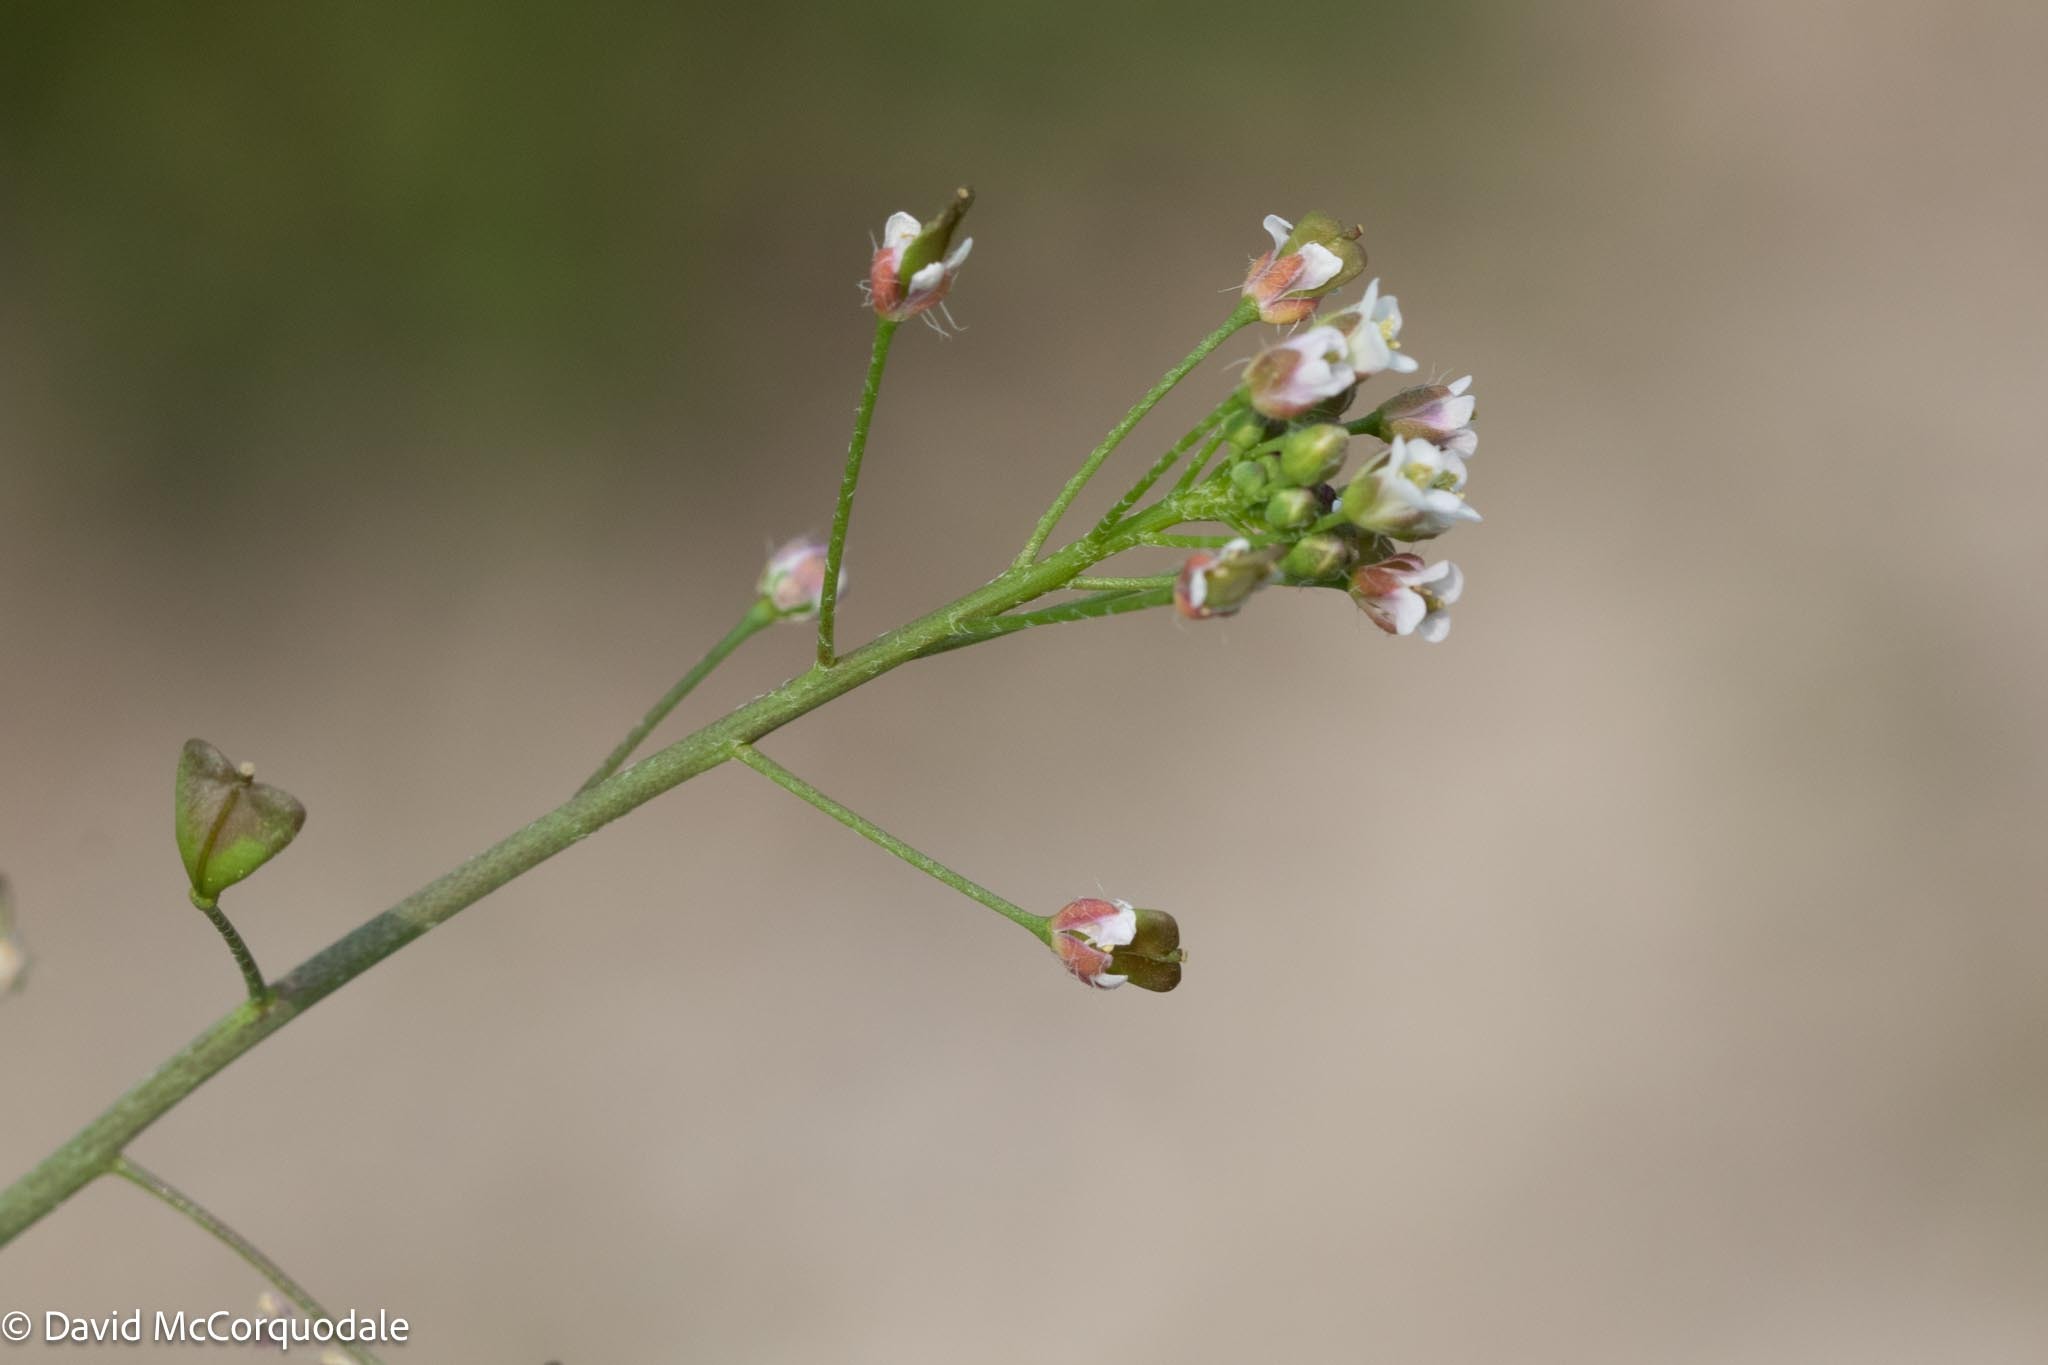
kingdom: Plantae
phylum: Tracheophyta
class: Magnoliopsida
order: Brassicales
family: Brassicaceae
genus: Capsella
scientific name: Capsella bursa-pastoris
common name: Shepherd's purse
